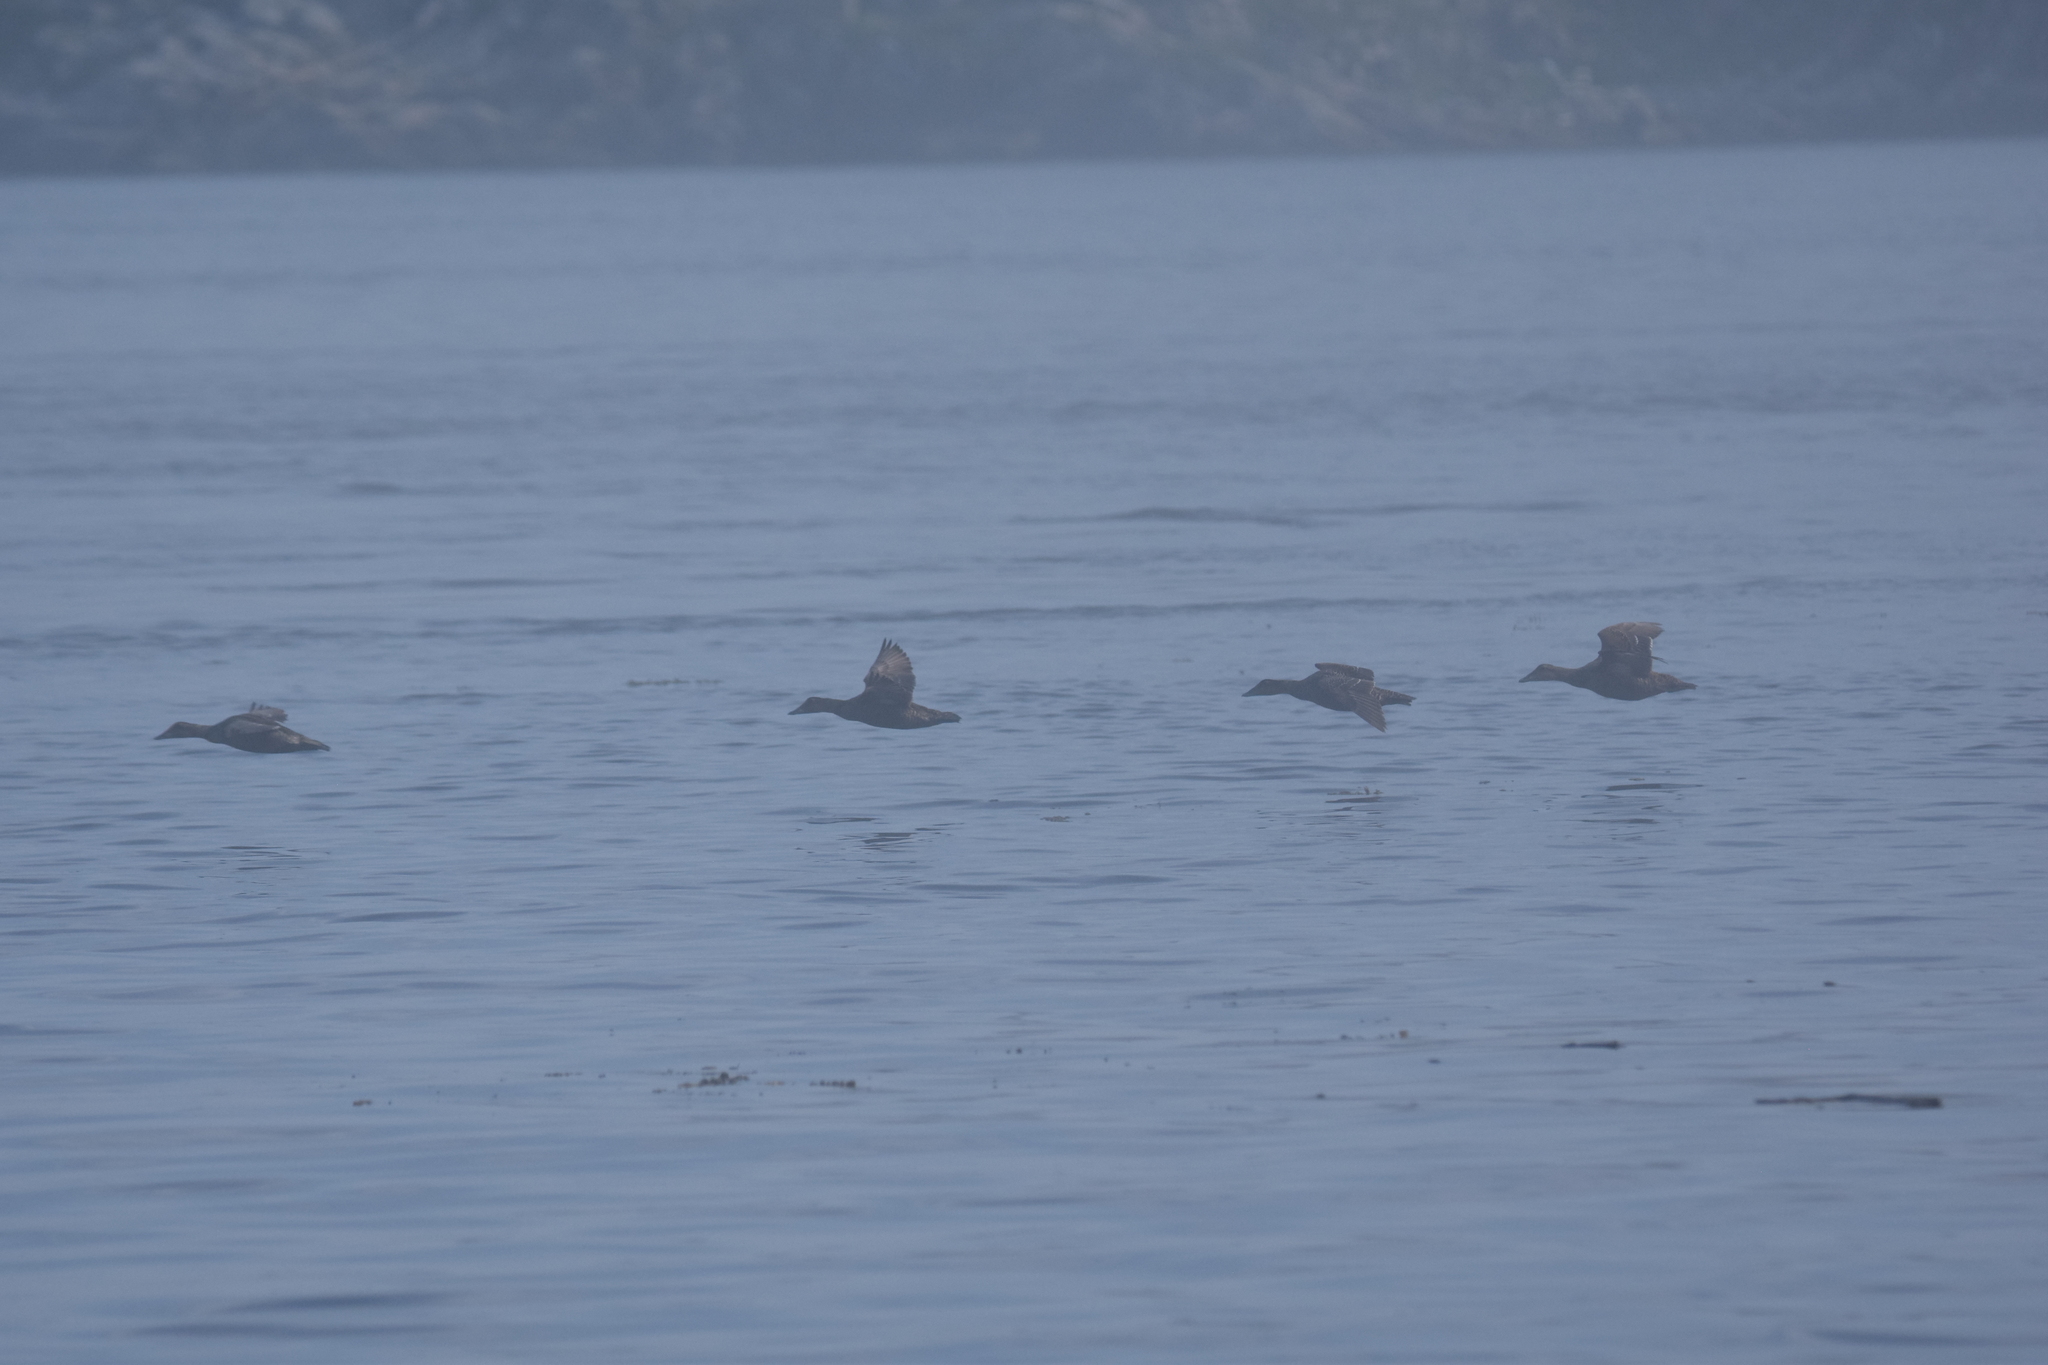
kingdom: Animalia
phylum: Chordata
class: Aves
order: Anseriformes
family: Anatidae
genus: Somateria
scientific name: Somateria mollissima
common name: Common eider
